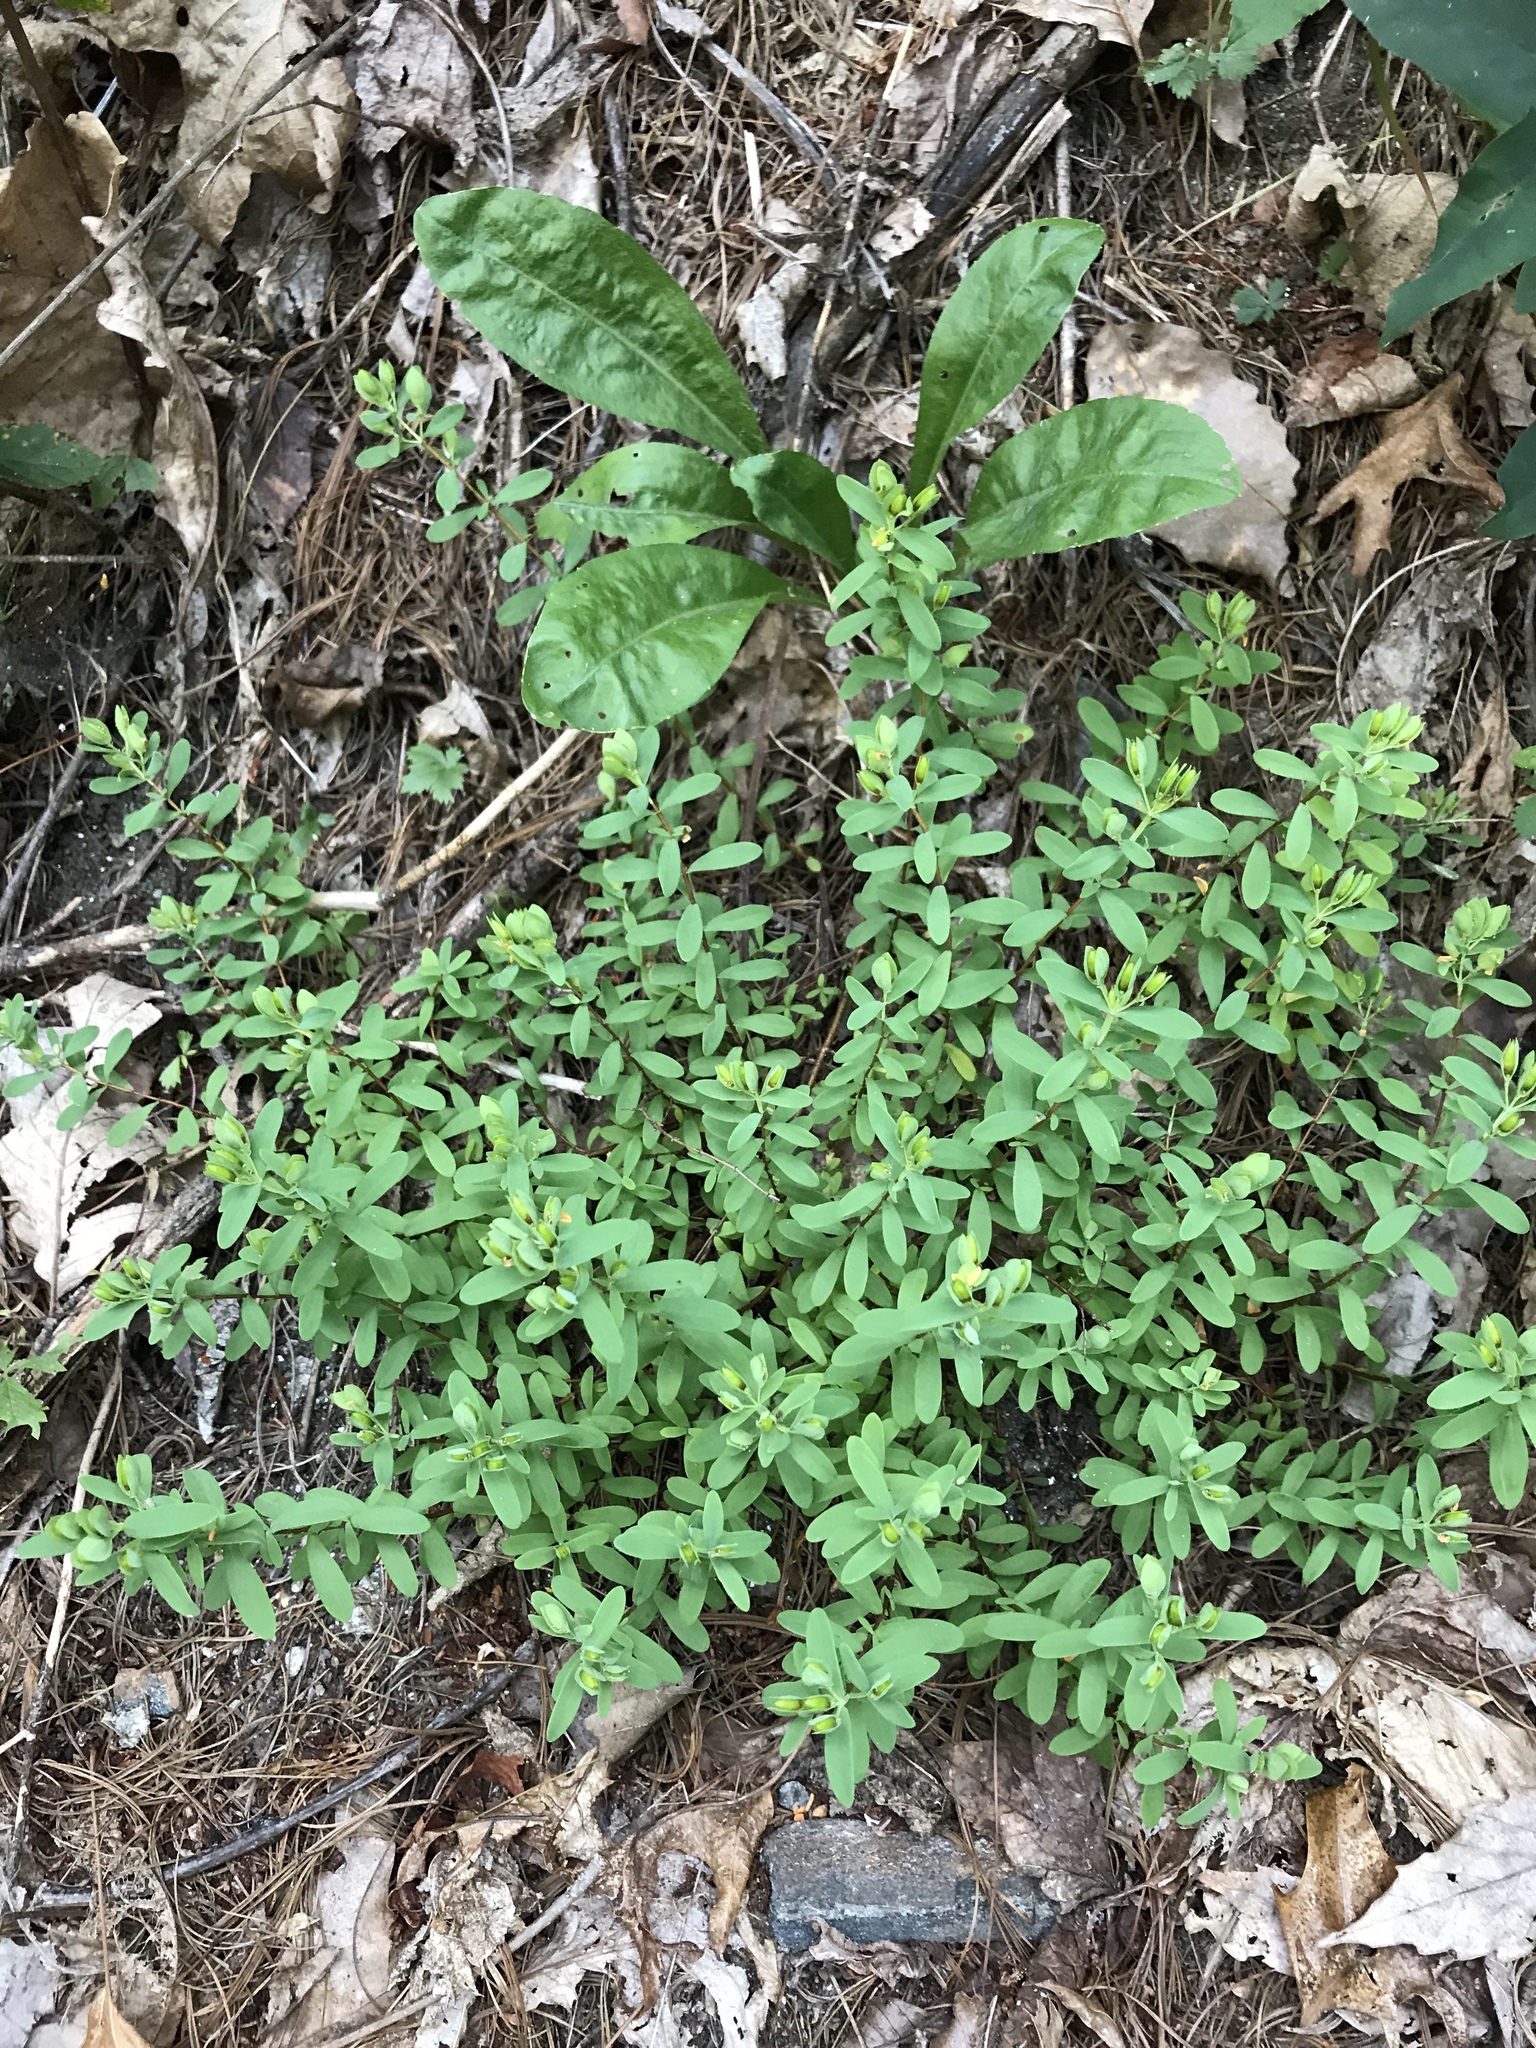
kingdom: Plantae
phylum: Tracheophyta
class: Magnoliopsida
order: Malpighiales
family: Hypericaceae
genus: Hypericum
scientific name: Hypericum hypericoides
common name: St. andrew's cross
